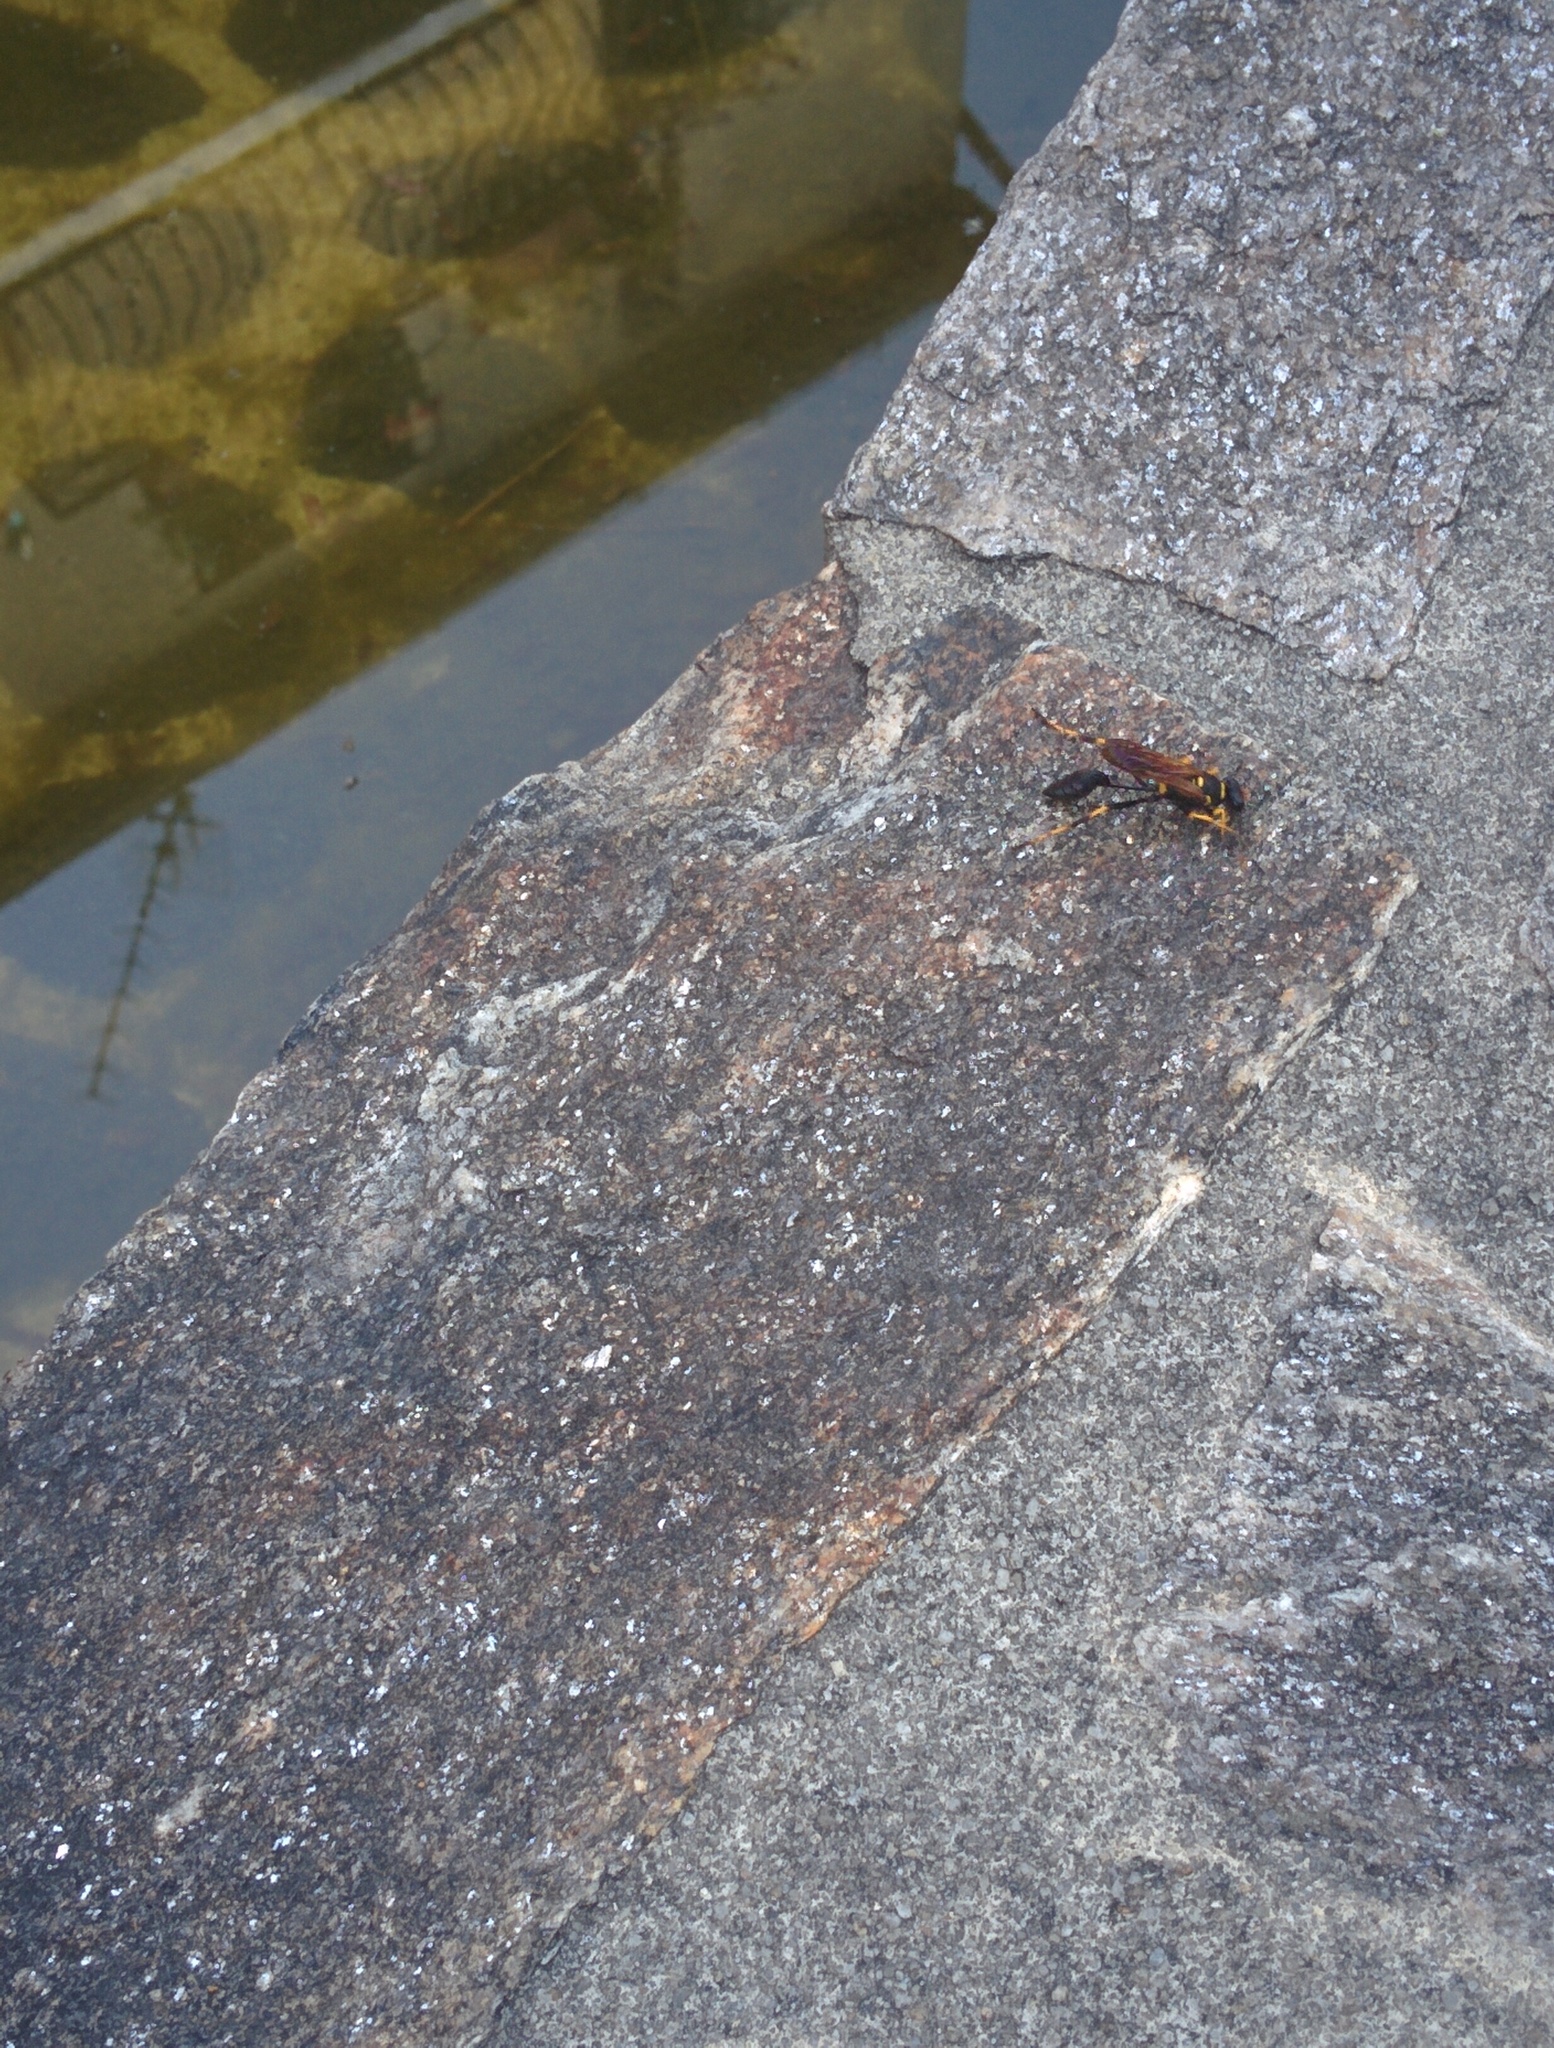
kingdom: Animalia
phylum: Arthropoda
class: Insecta
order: Hymenoptera
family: Sphecidae
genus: Sceliphron
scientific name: Sceliphron caementarium
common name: Mud dauber
